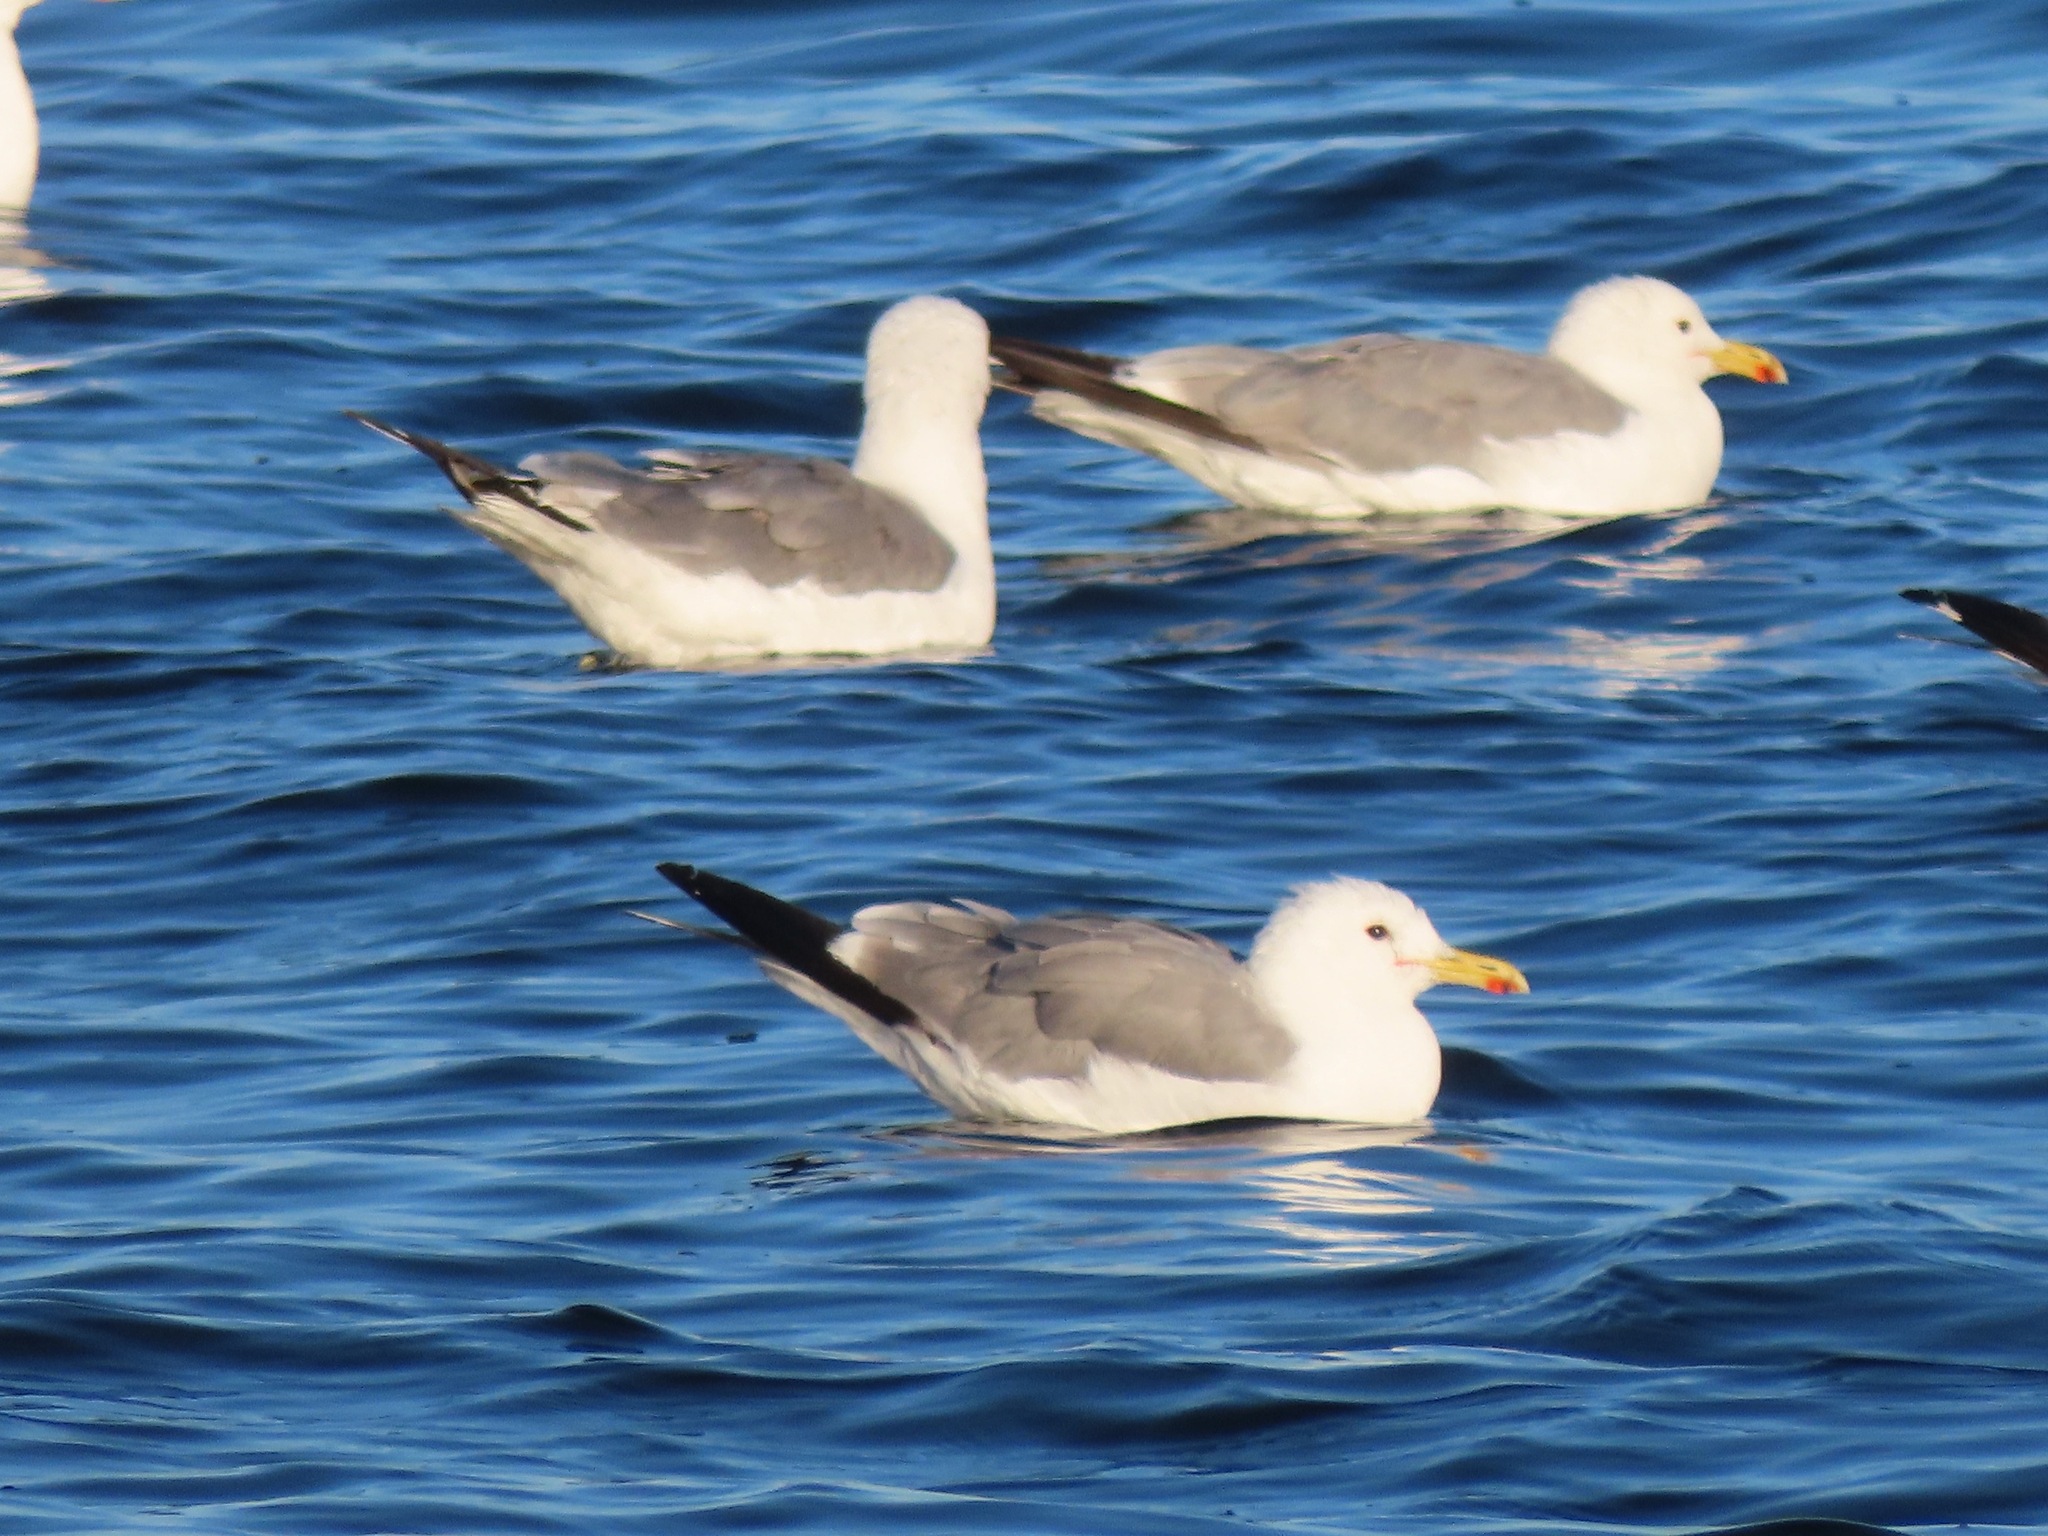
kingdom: Animalia
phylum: Chordata
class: Aves
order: Charadriiformes
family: Laridae
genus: Larus
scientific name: Larus californicus
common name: California gull
